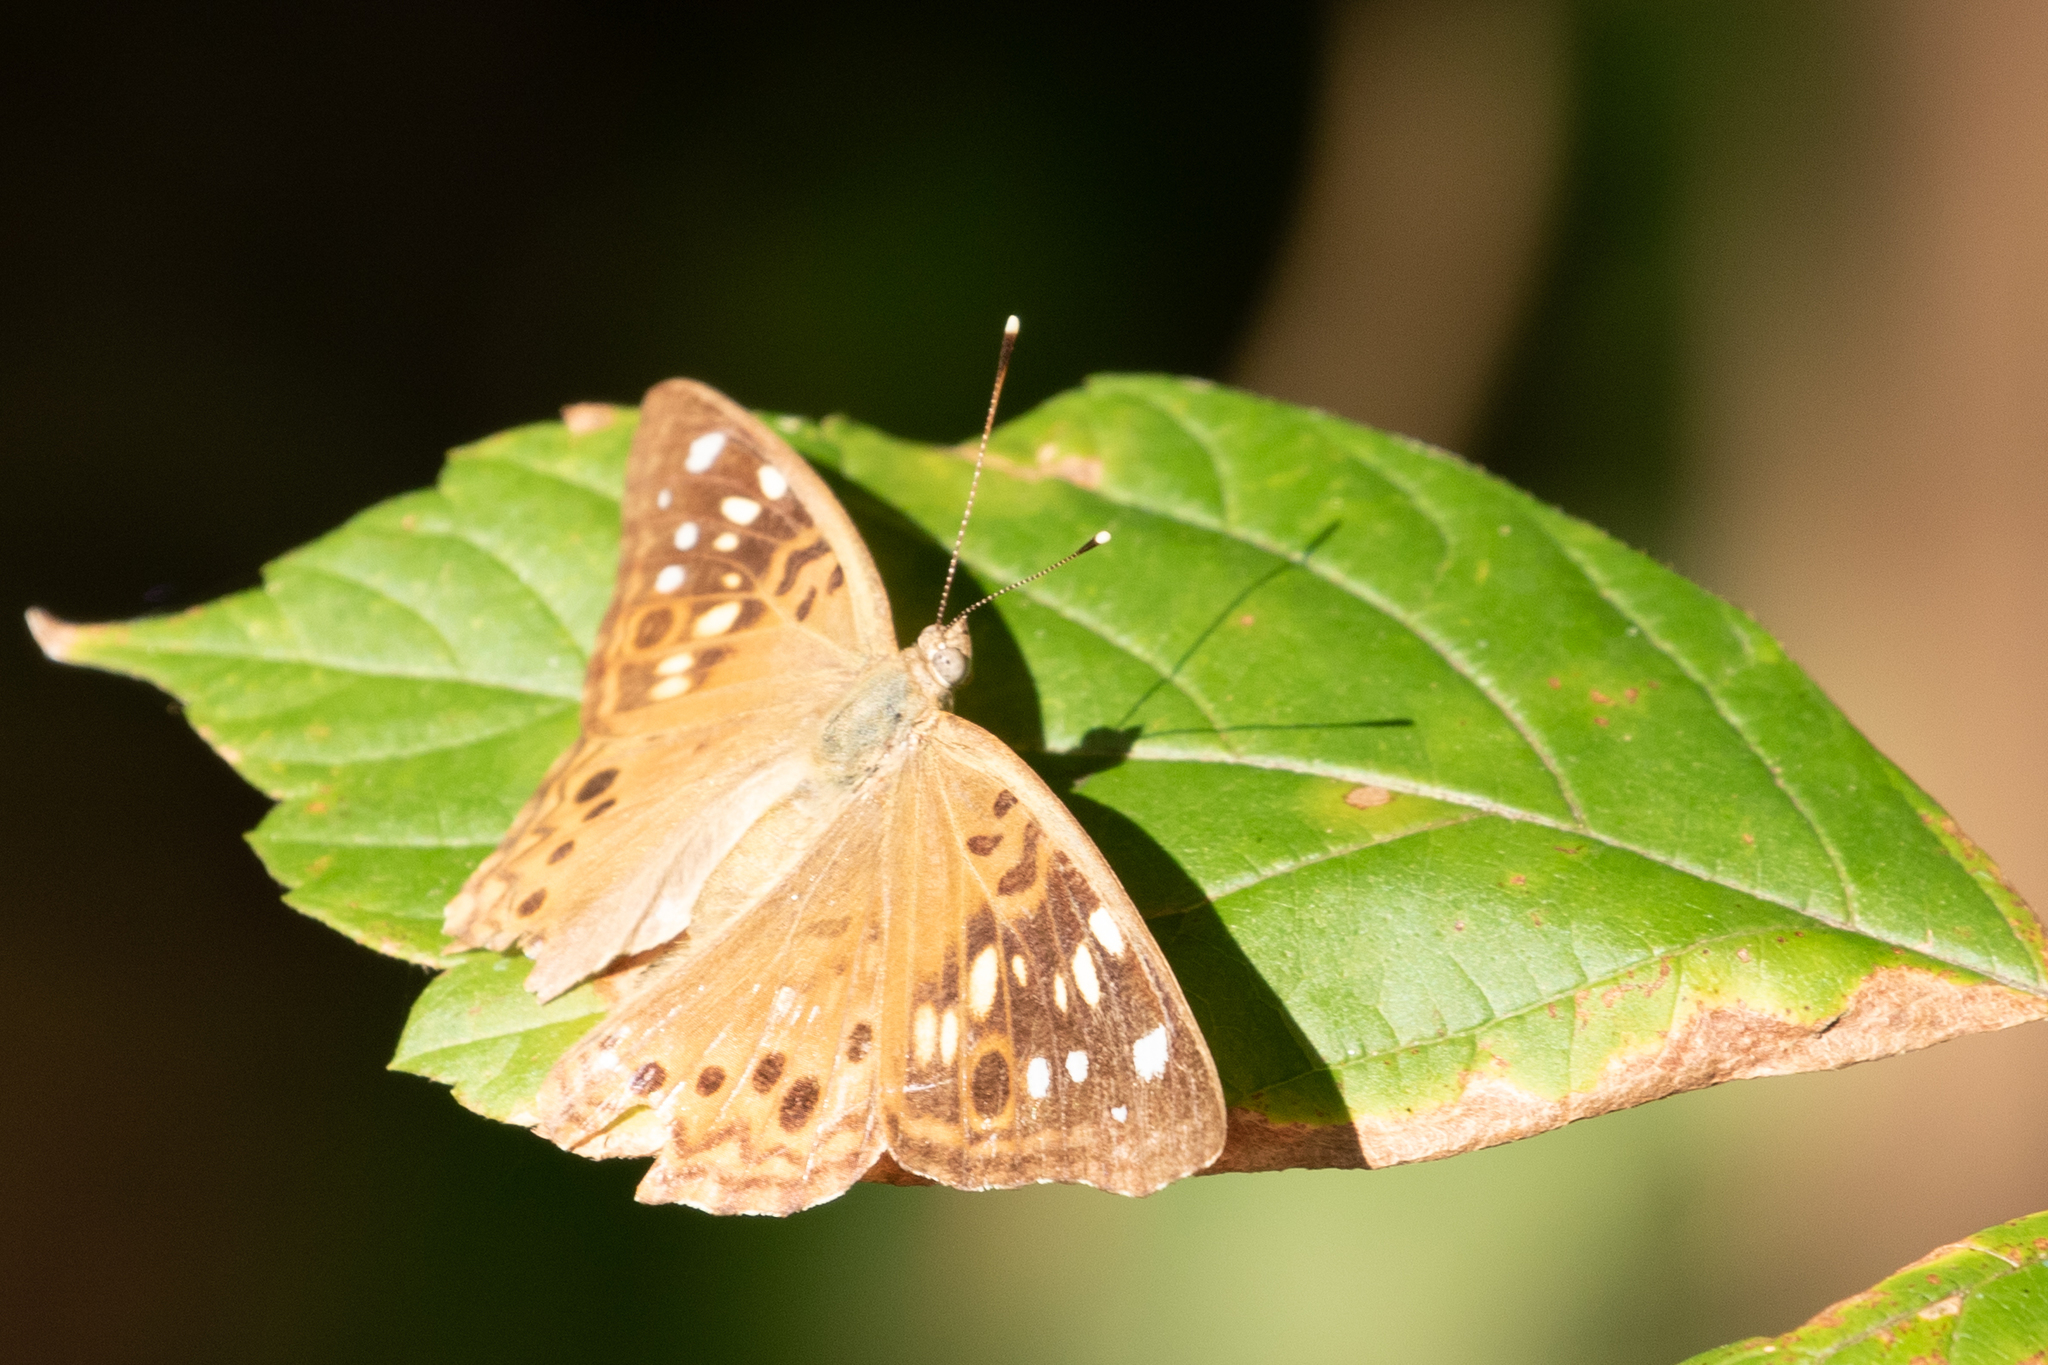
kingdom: Animalia
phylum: Arthropoda
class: Insecta
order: Lepidoptera
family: Nymphalidae
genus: Asterocampa
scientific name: Asterocampa celtis
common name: Hackberry emperor
